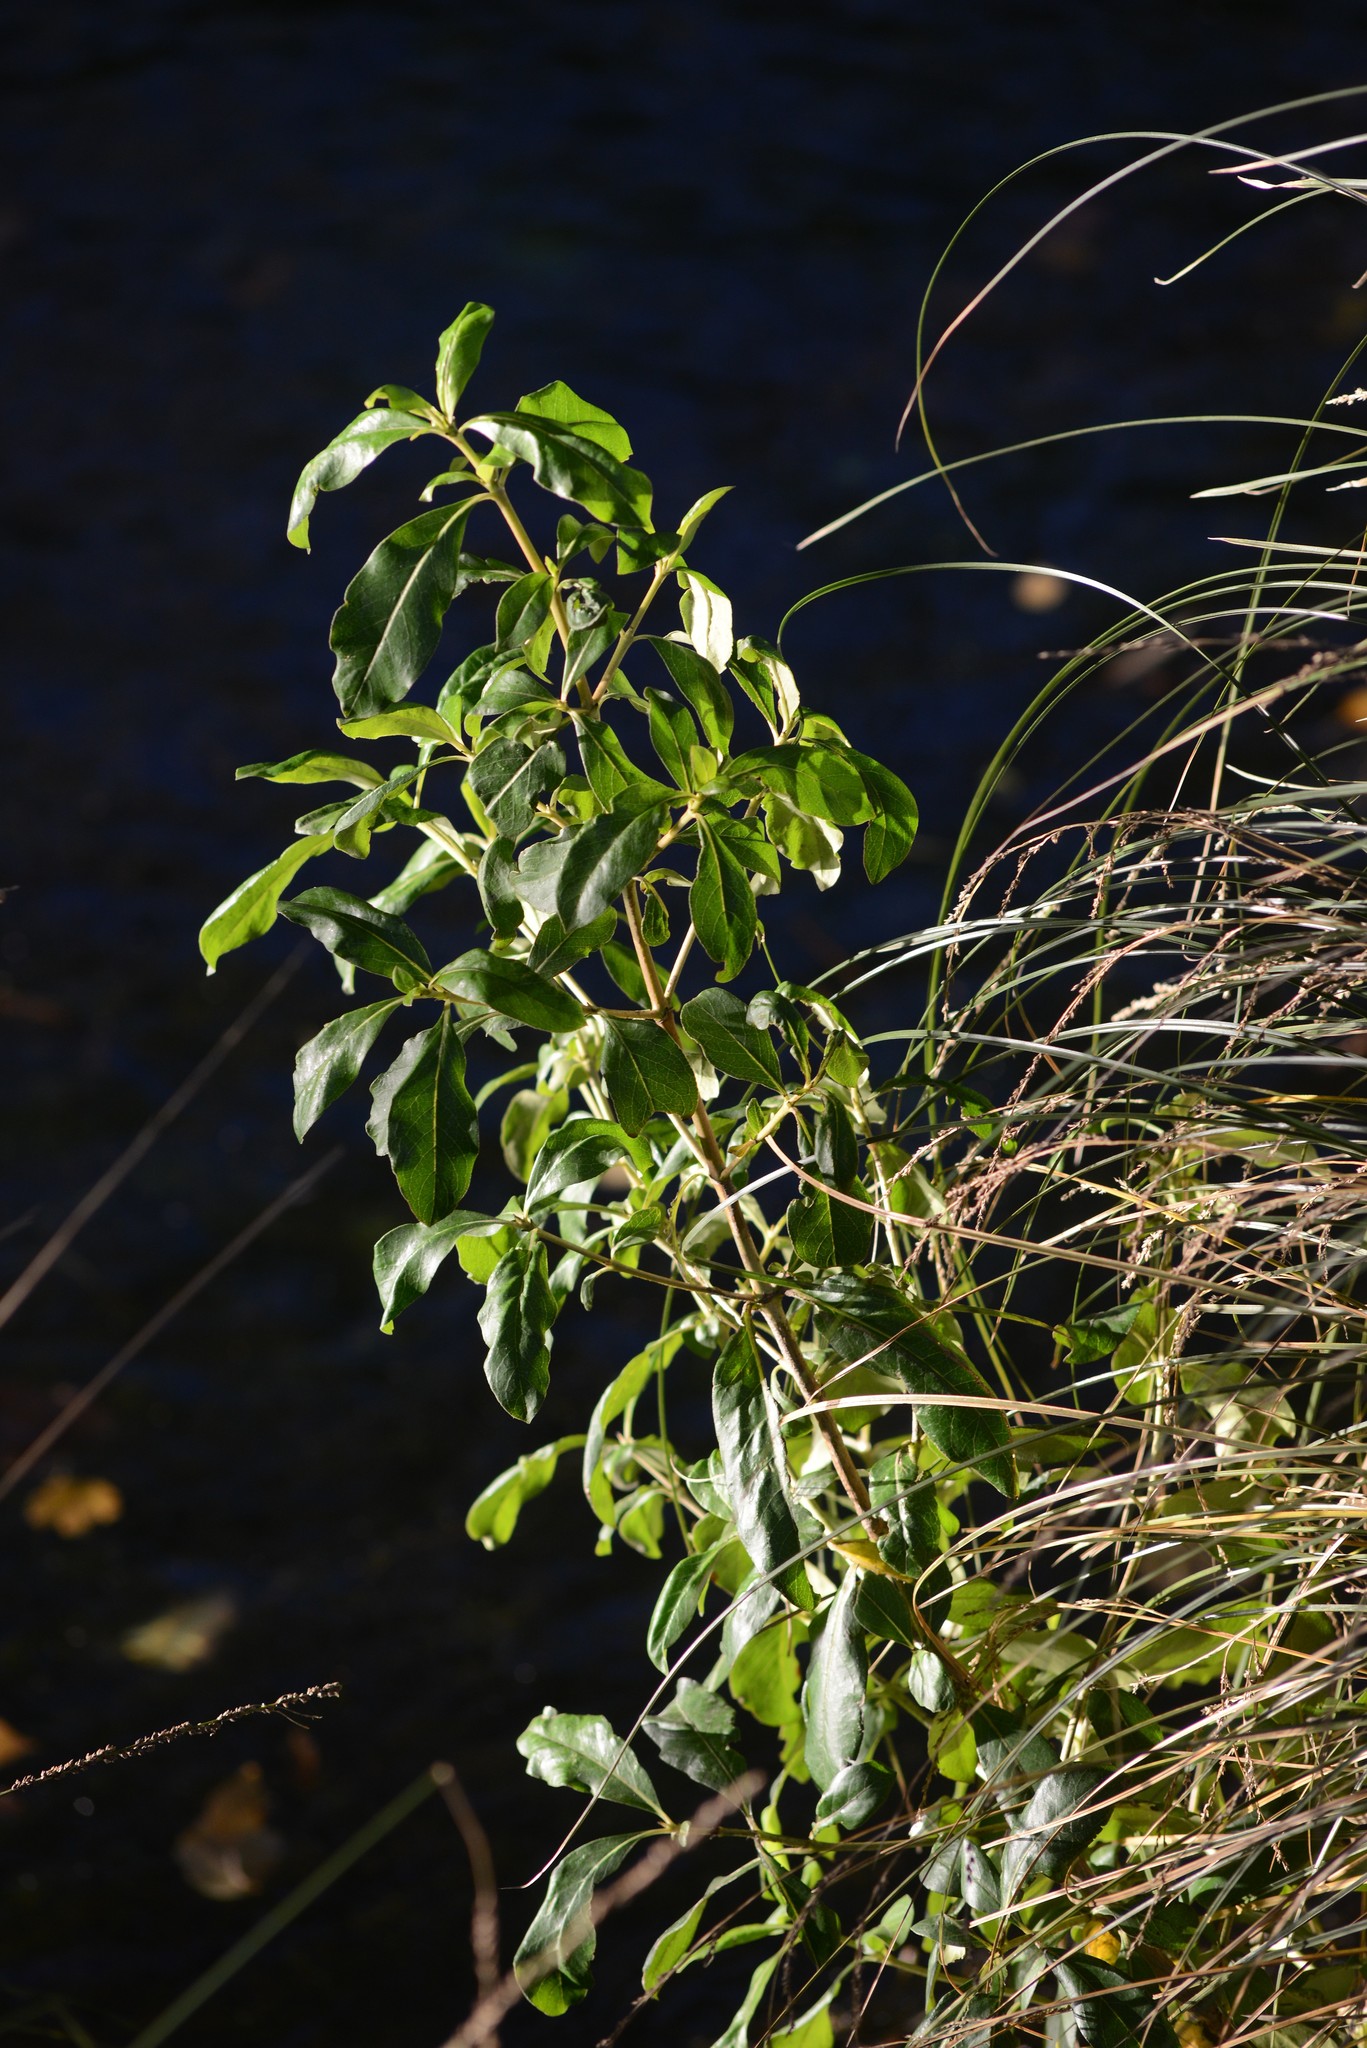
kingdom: Plantae
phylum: Tracheophyta
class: Magnoliopsida
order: Gentianales
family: Rubiaceae
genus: Coprosma
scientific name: Coprosma robusta
